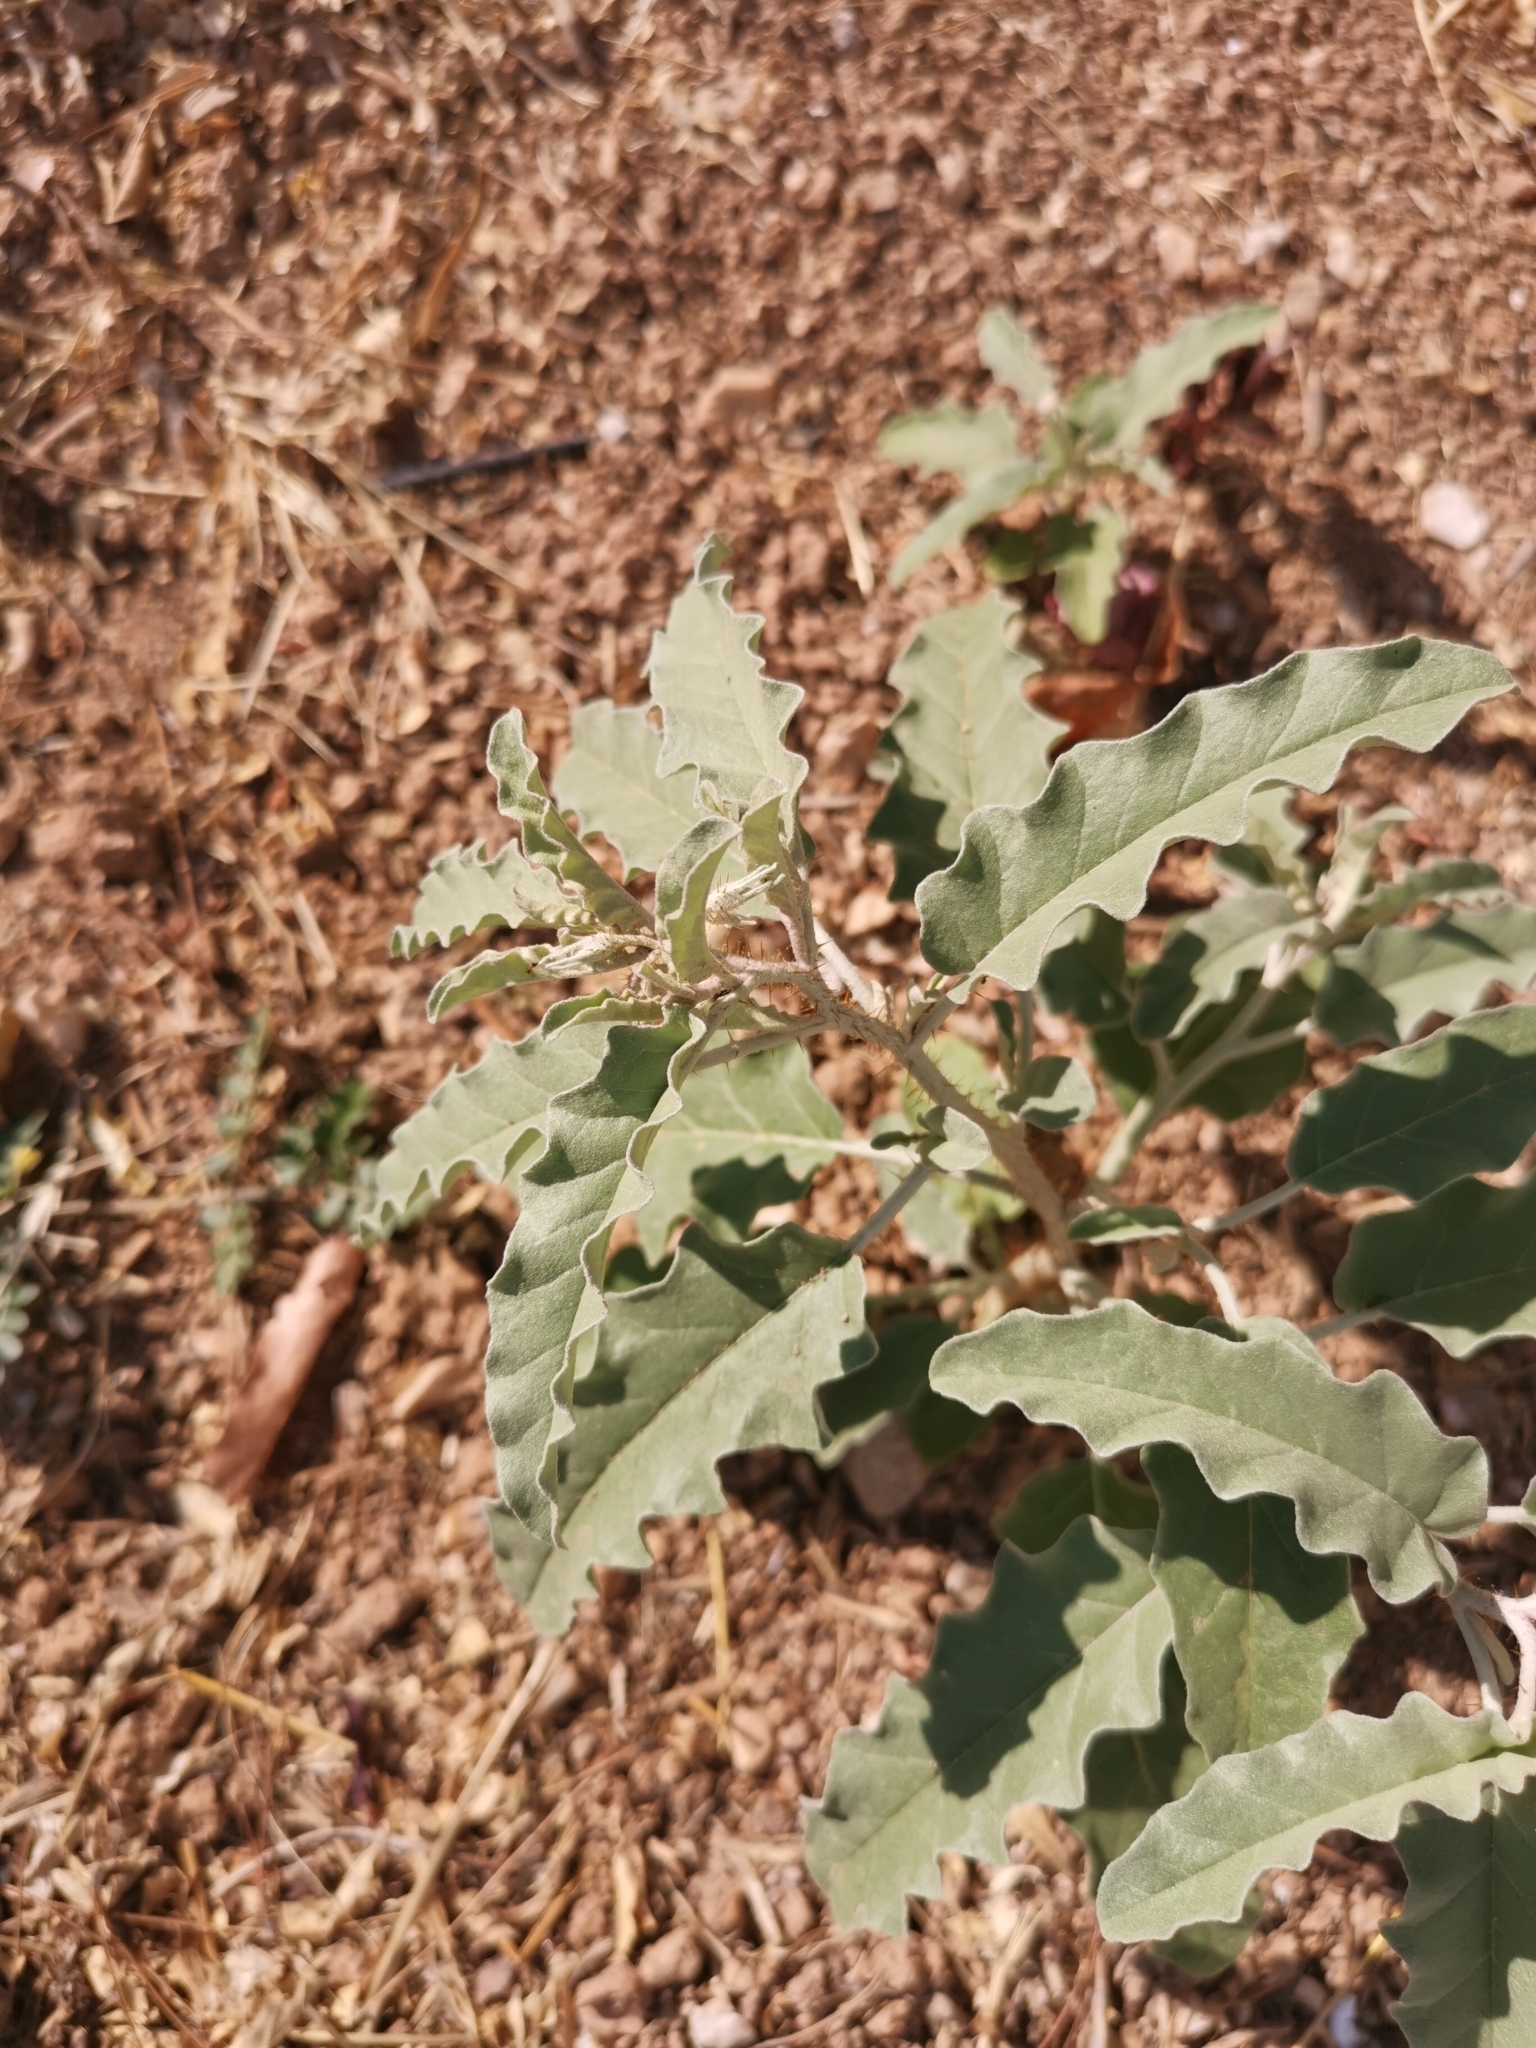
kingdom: Plantae
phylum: Tracheophyta
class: Magnoliopsida
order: Solanales
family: Solanaceae
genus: Solanum
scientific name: Solanum elaeagnifolium
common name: Silverleaf nightshade
